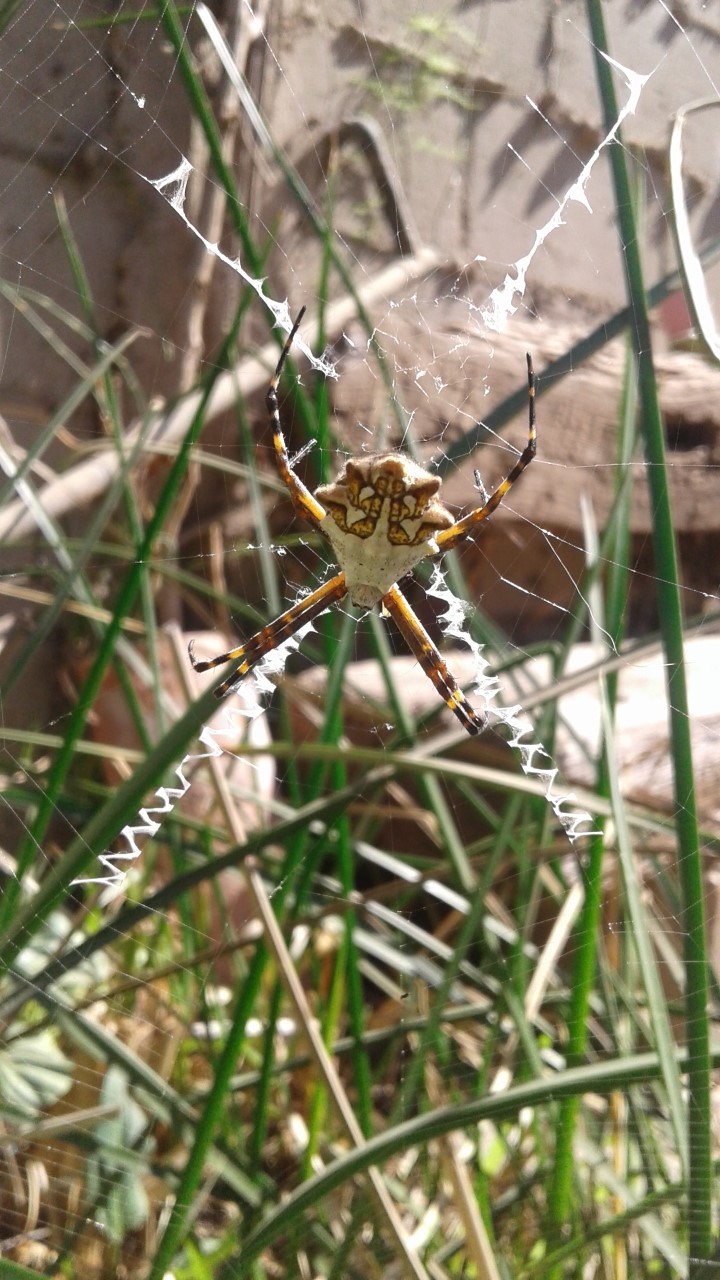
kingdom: Animalia
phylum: Arthropoda
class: Arachnida
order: Araneae
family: Araneidae
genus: Argiope
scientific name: Argiope argentata
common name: Orb weavers
